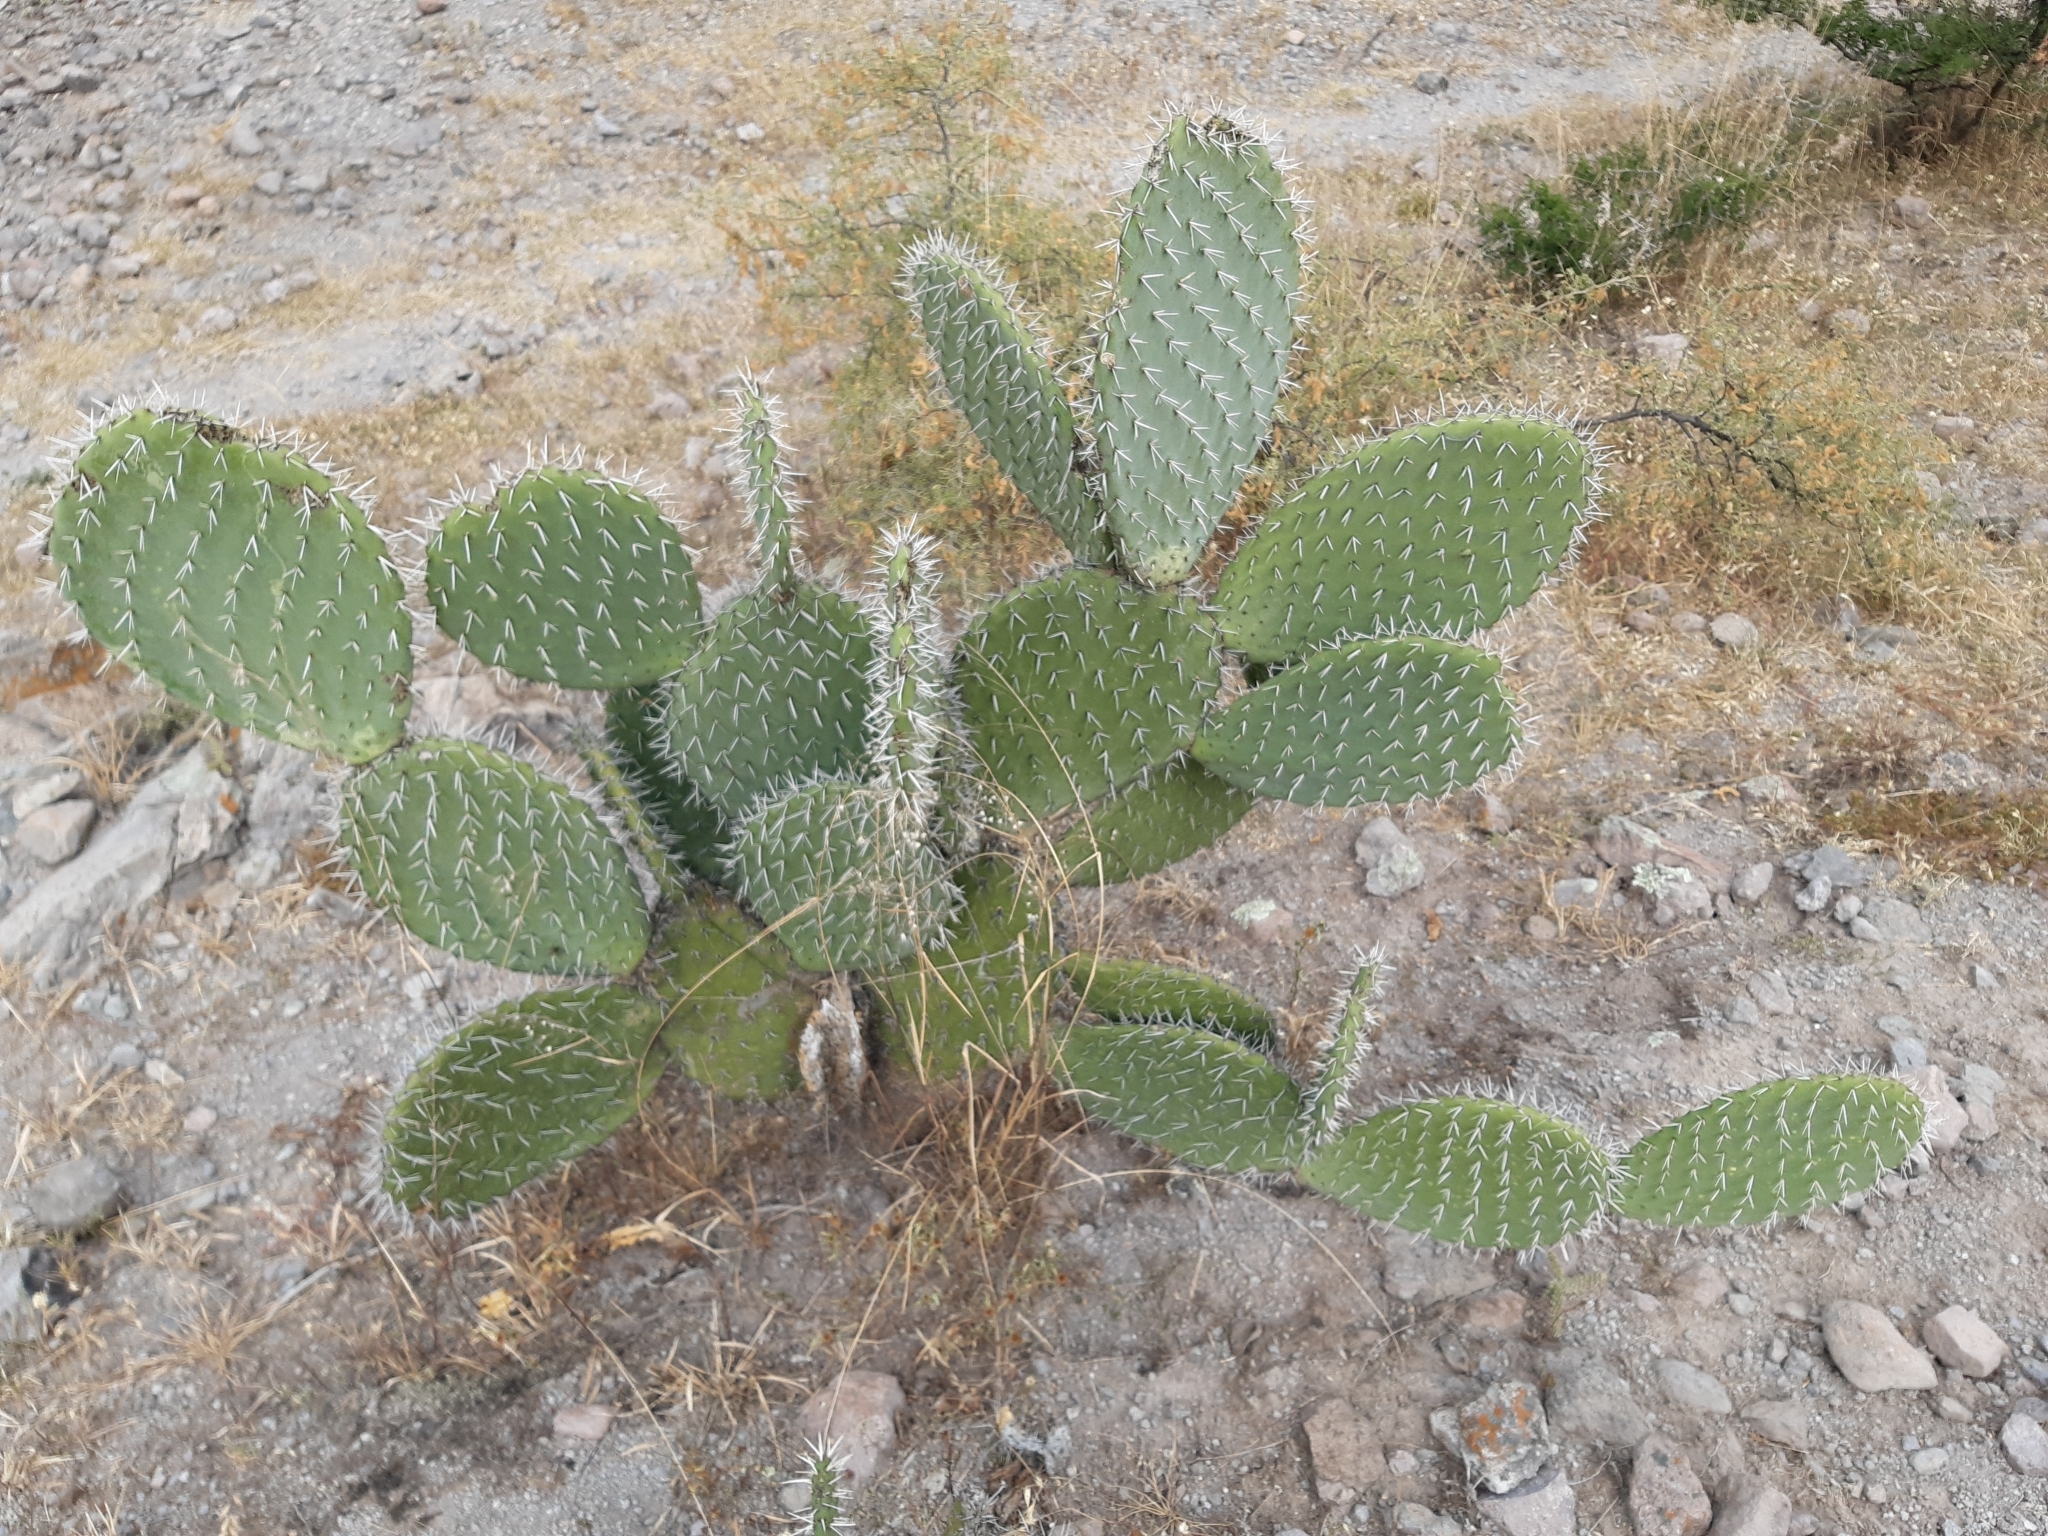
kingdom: Plantae
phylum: Tracheophyta
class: Magnoliopsida
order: Caryophyllales
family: Cactaceae
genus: Opuntia
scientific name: Opuntia lasiacantha
